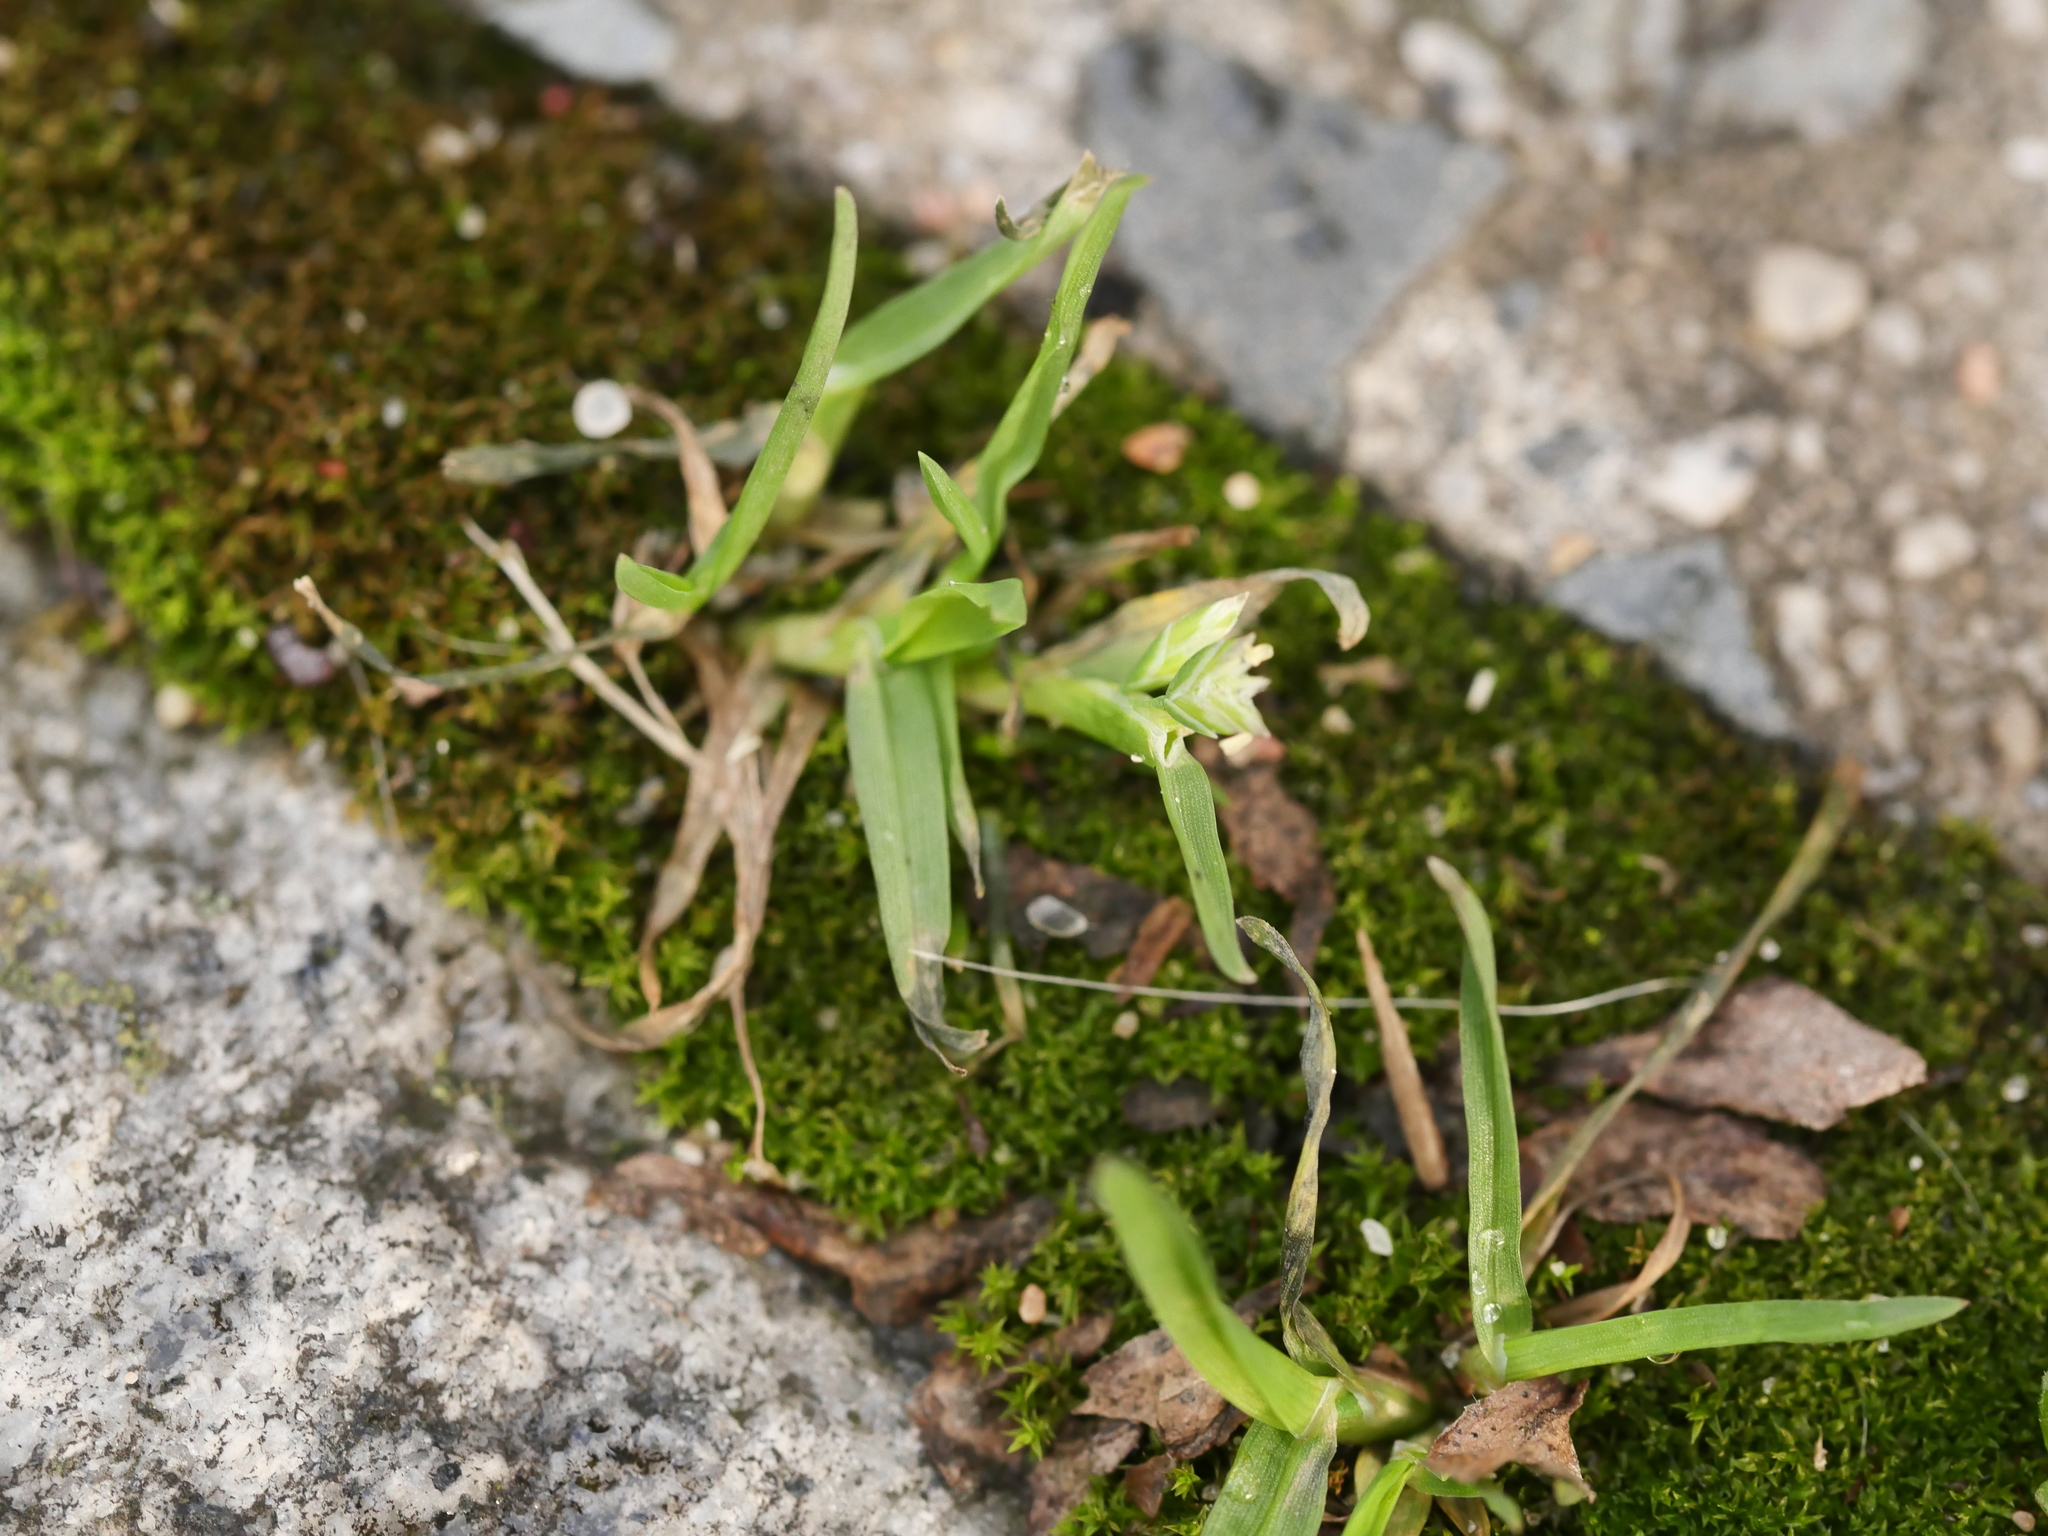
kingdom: Plantae
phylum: Tracheophyta
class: Liliopsida
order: Poales
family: Poaceae
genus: Poa
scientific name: Poa annua
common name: Annual bluegrass
